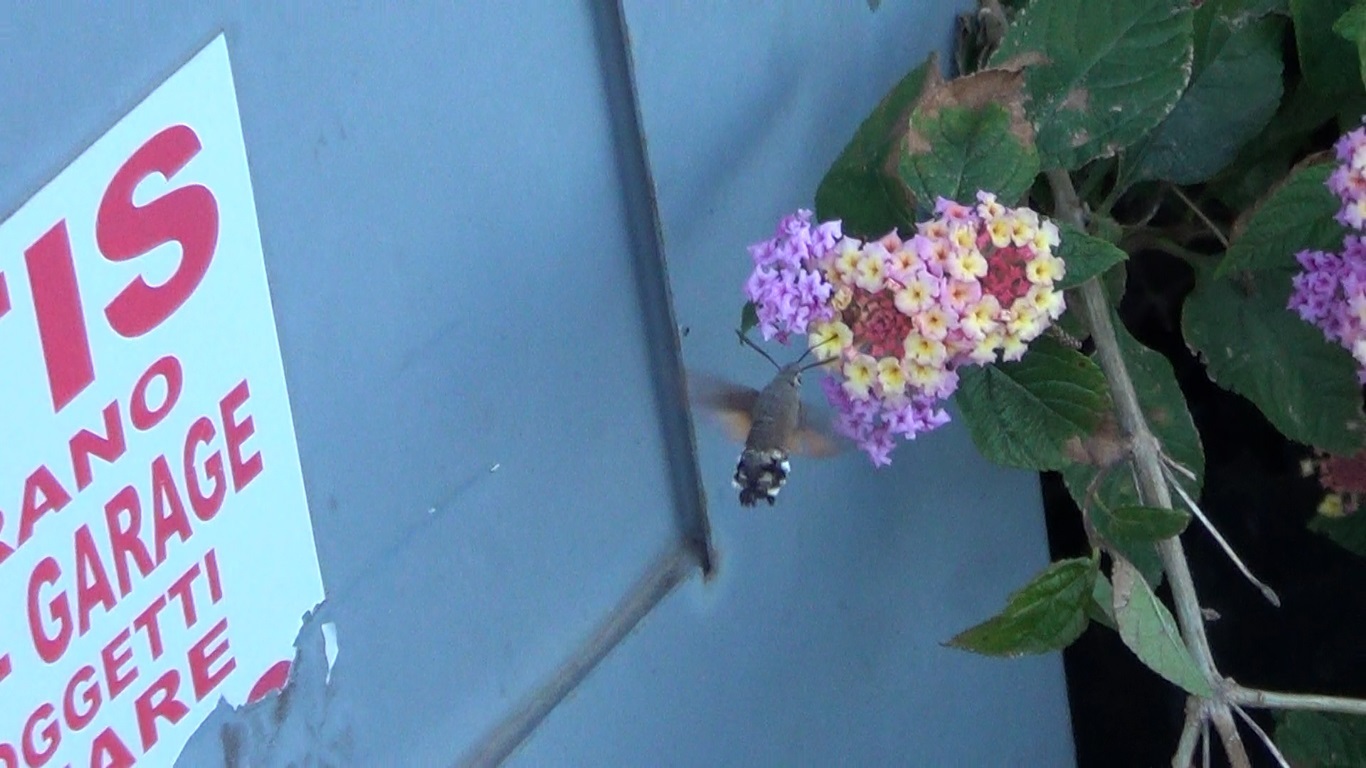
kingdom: Animalia
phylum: Arthropoda
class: Insecta
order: Lepidoptera
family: Sphingidae
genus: Macroglossum
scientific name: Macroglossum stellatarum
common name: Humming-bird hawk-moth
